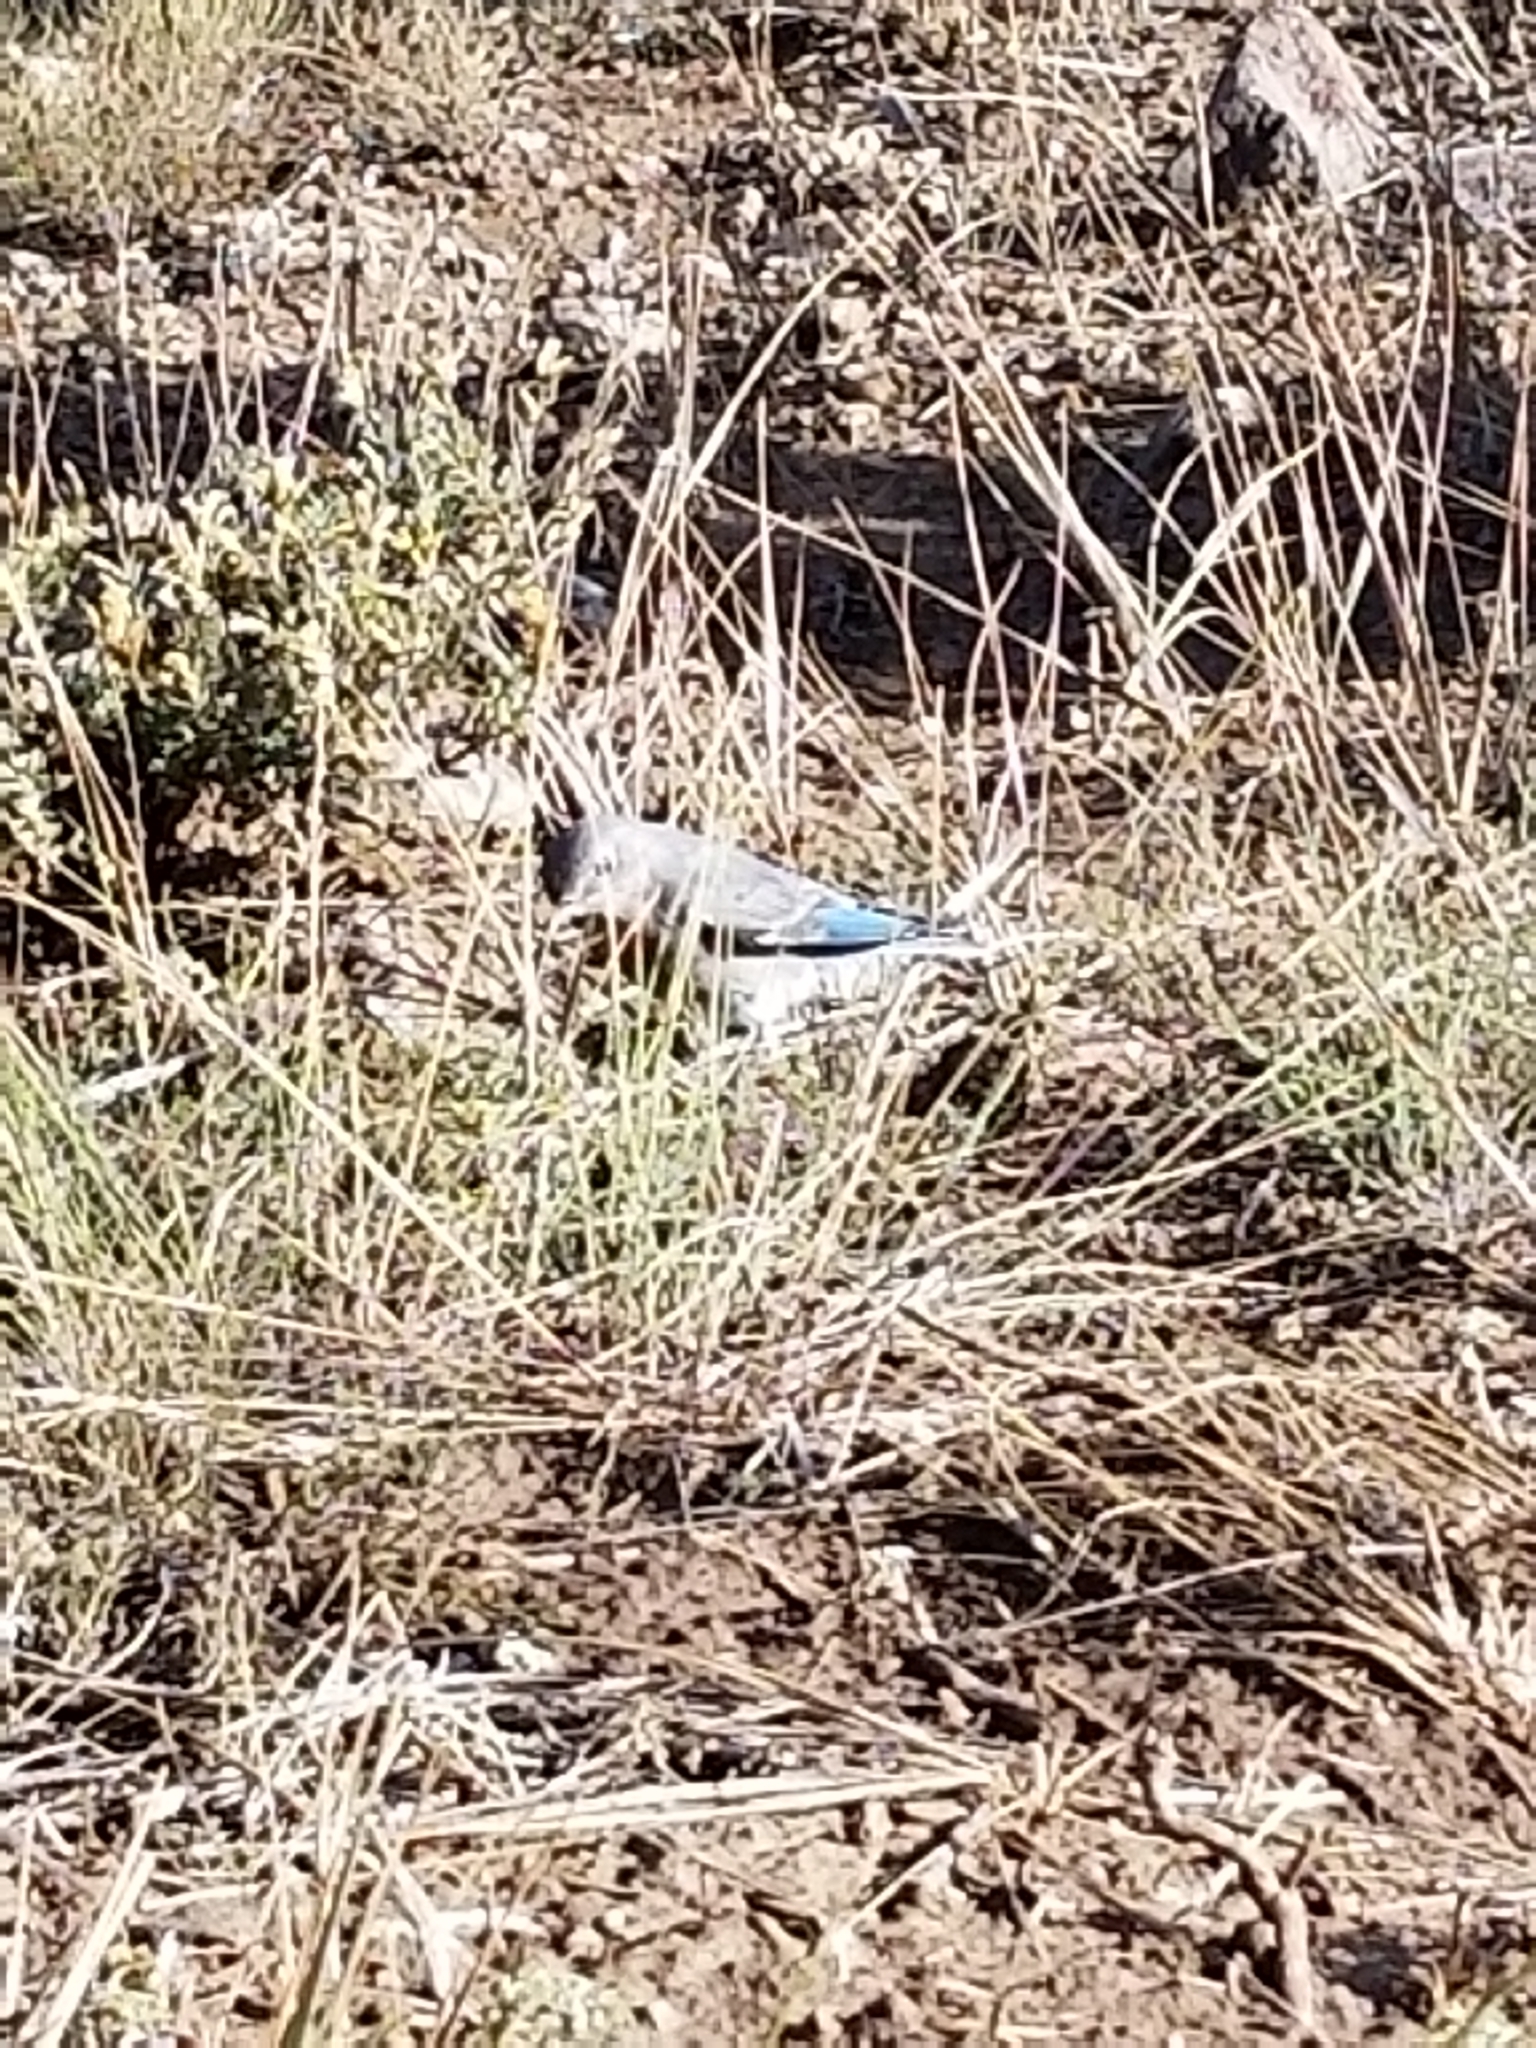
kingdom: Animalia
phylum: Chordata
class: Aves
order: Passeriformes
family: Turdidae
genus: Sialia
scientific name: Sialia currucoides
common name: Mountain bluebird
